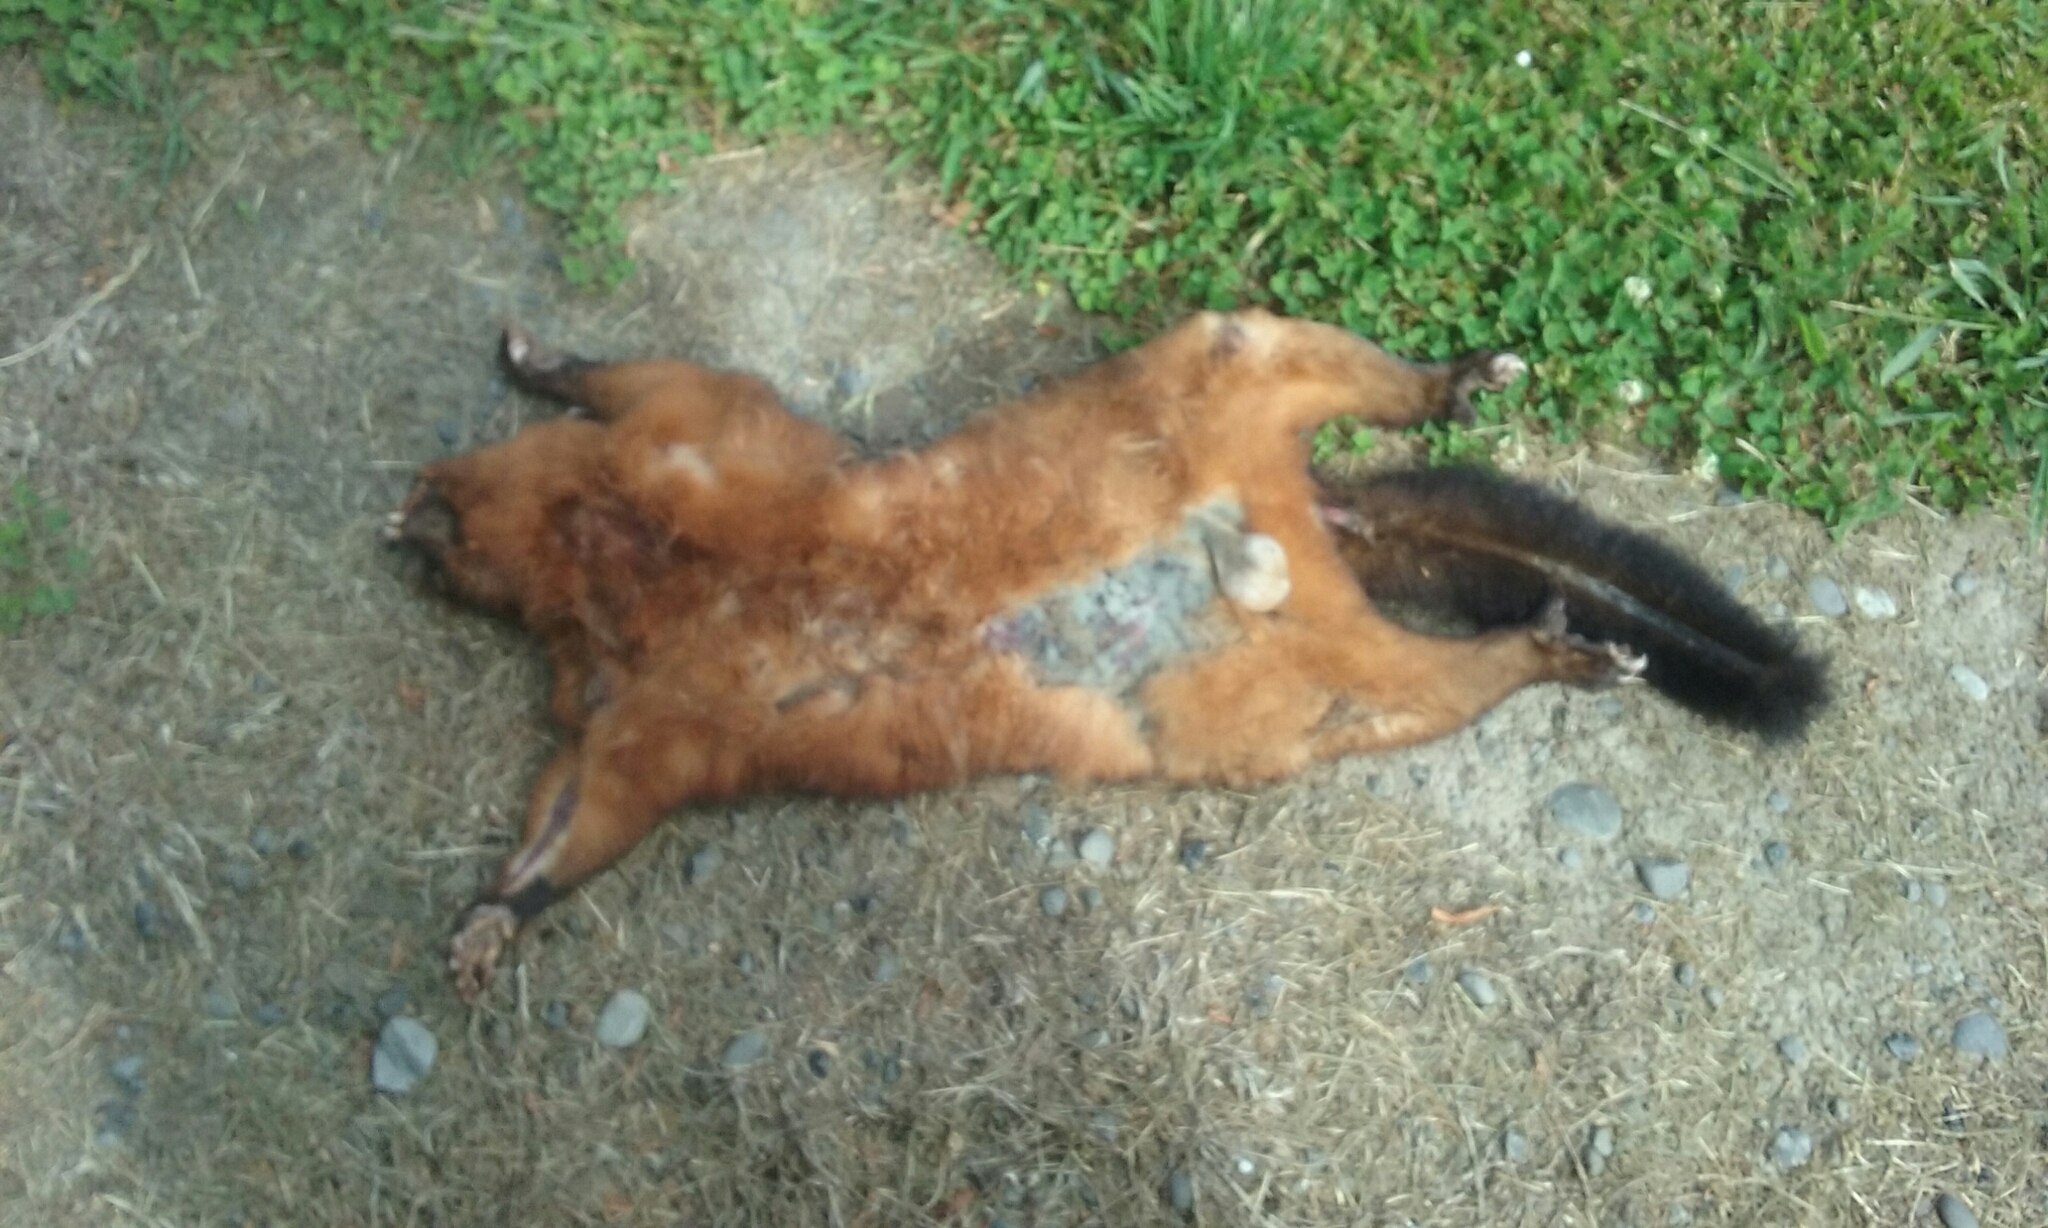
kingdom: Animalia
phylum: Chordata
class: Mammalia
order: Diprotodontia
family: Phalangeridae
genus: Trichosurus
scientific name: Trichosurus vulpecula
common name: Common brushtail
